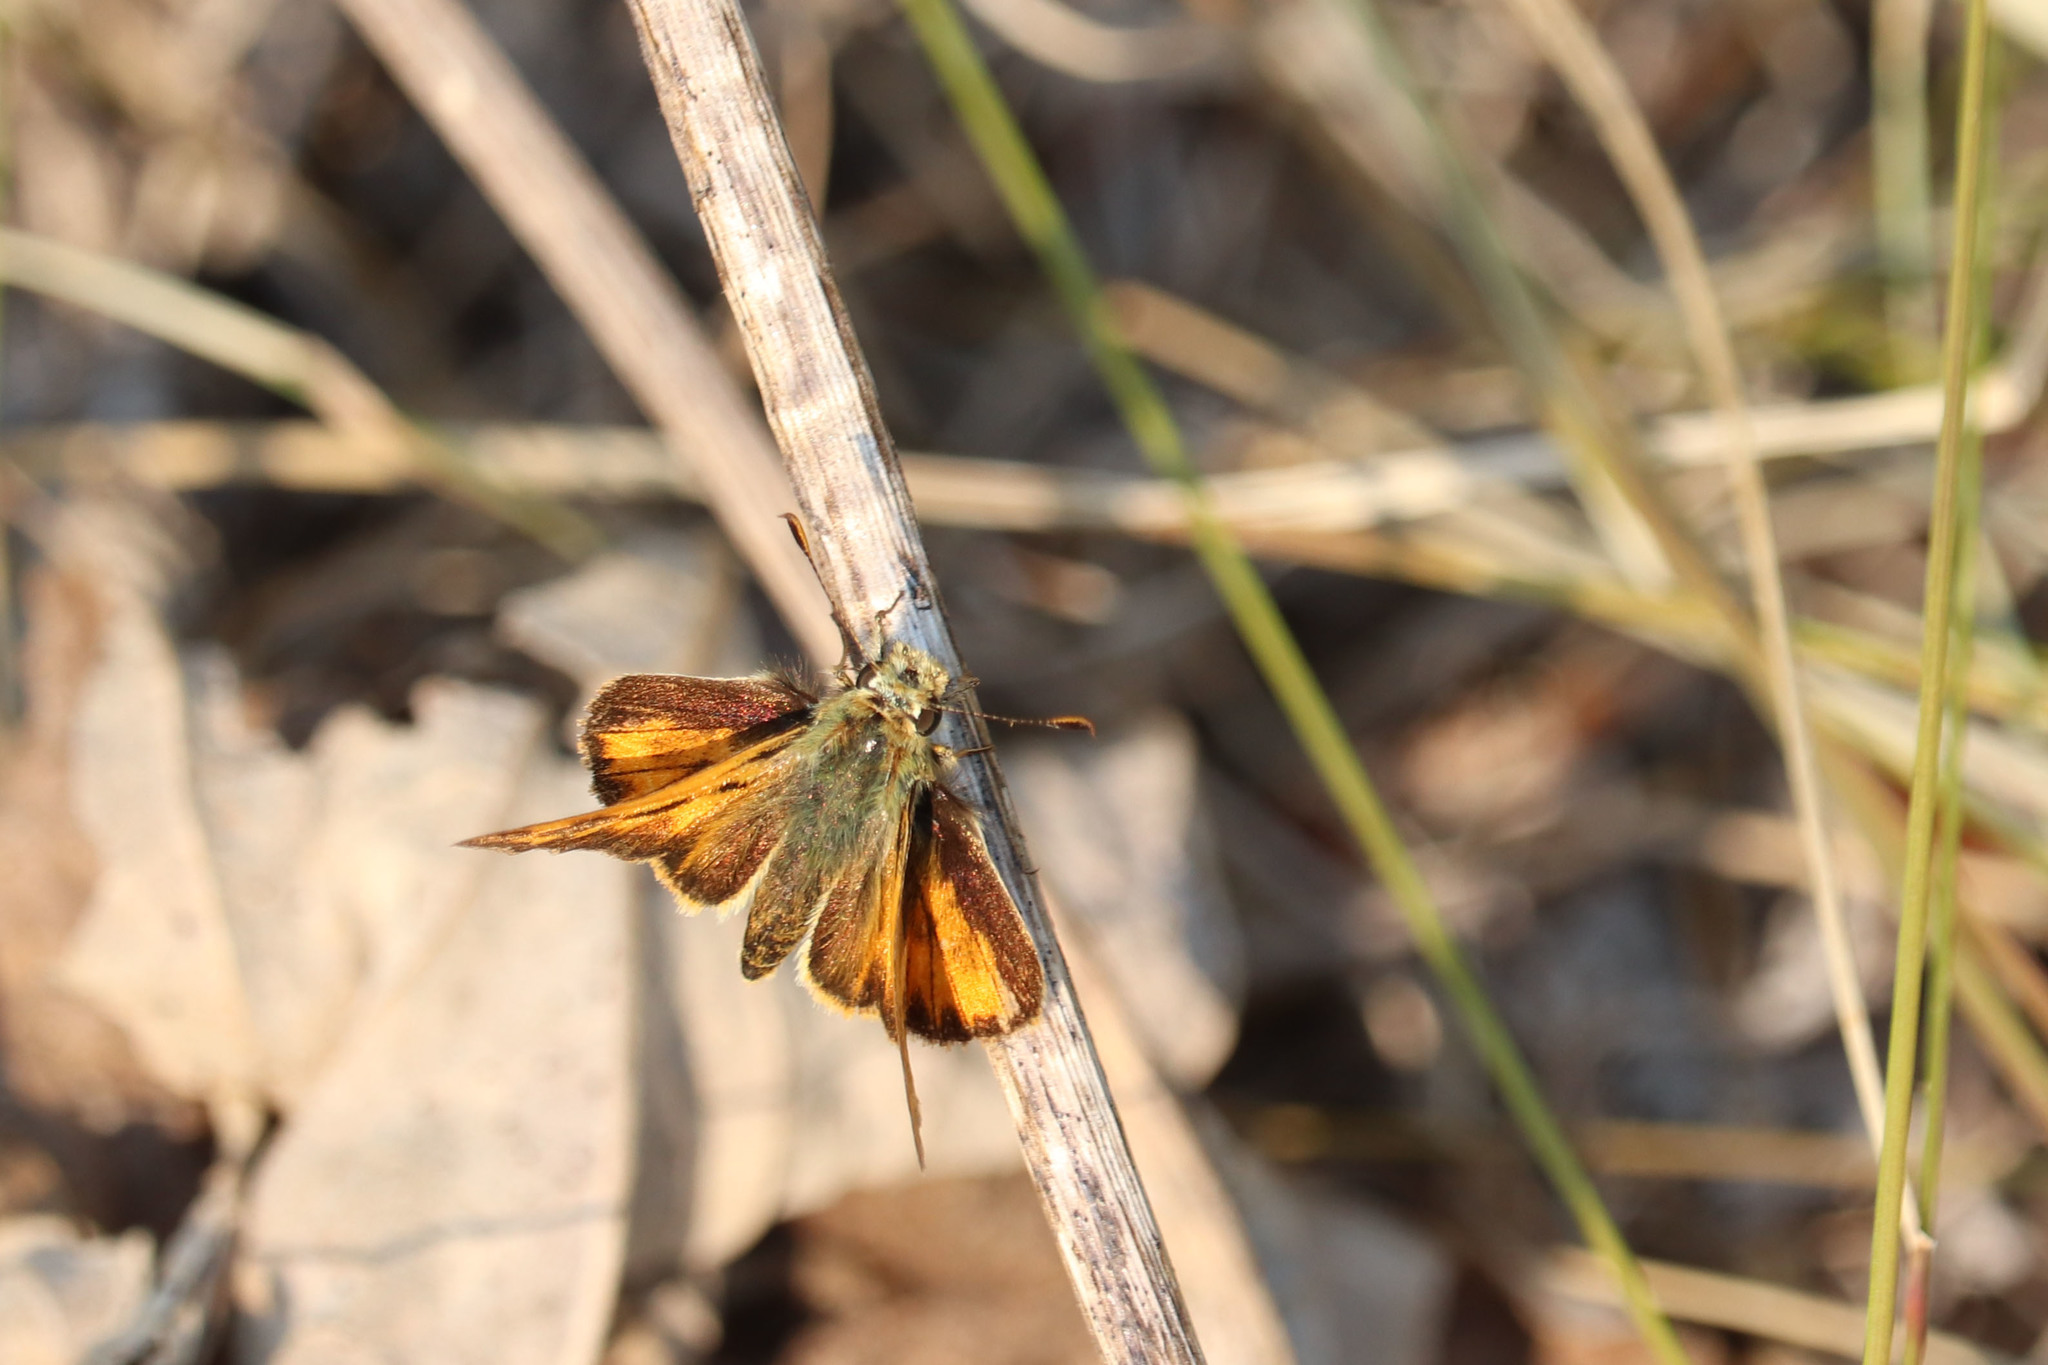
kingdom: Animalia
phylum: Arthropoda
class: Insecta
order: Lepidoptera
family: Hesperiidae
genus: Ochlodes
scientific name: Ochlodes sylvanoides
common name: Woodland skipper
